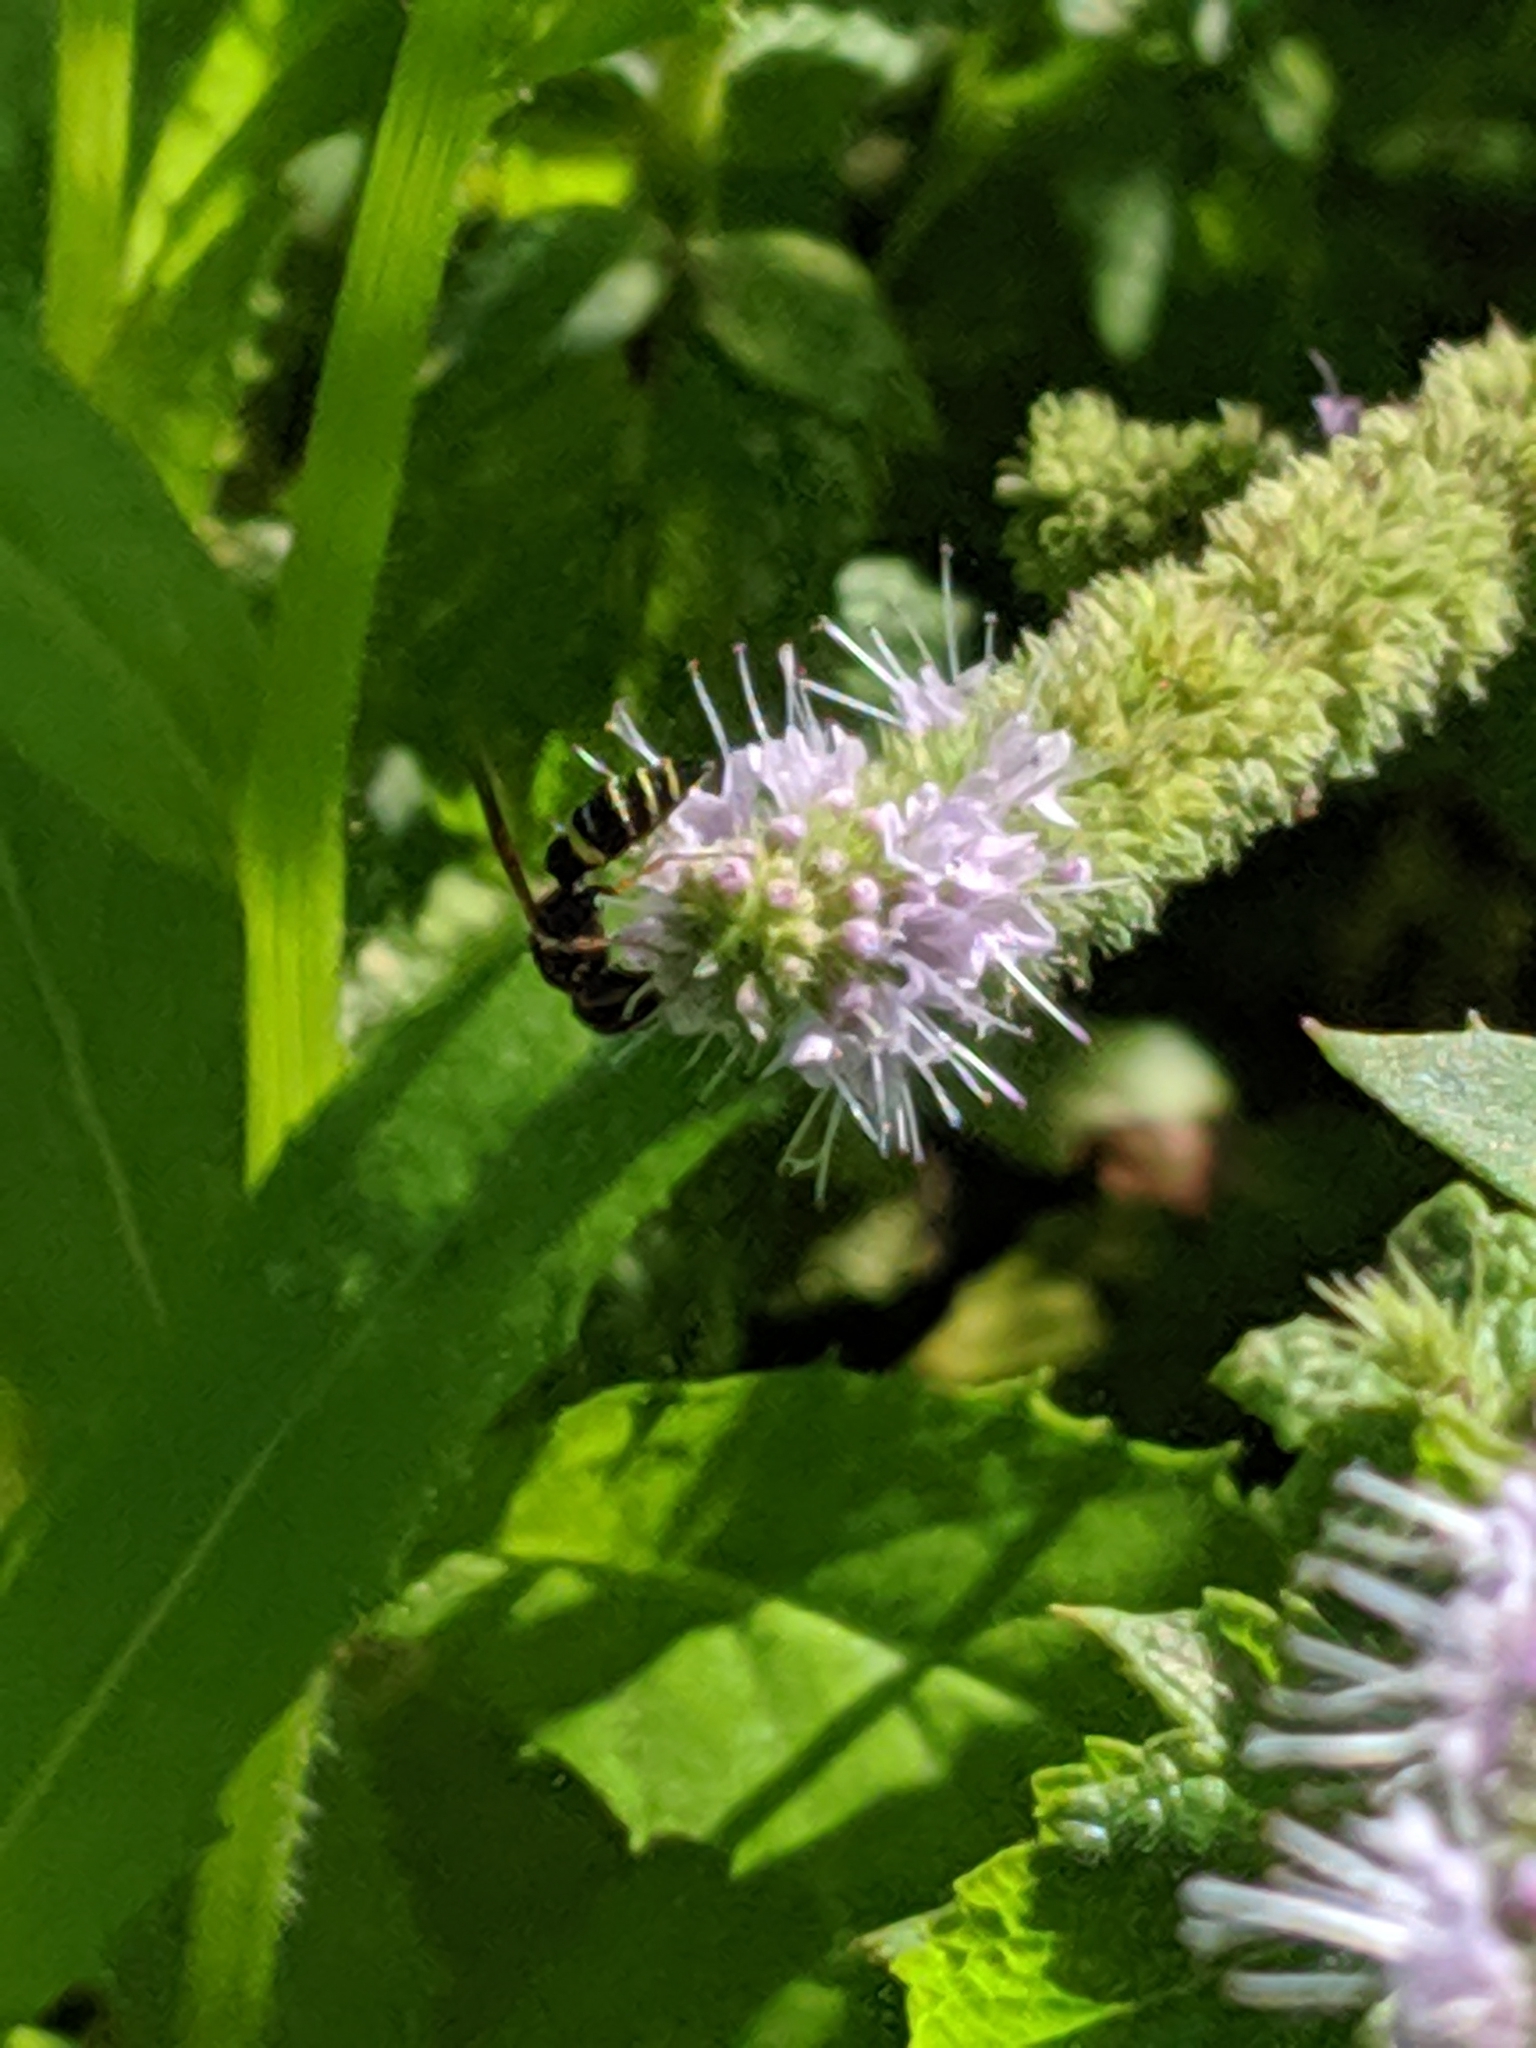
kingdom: Animalia
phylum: Arthropoda
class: Insecta
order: Hymenoptera
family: Crabronidae
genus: Philanthus
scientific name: Philanthus gibbosus
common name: Humped beewolf
